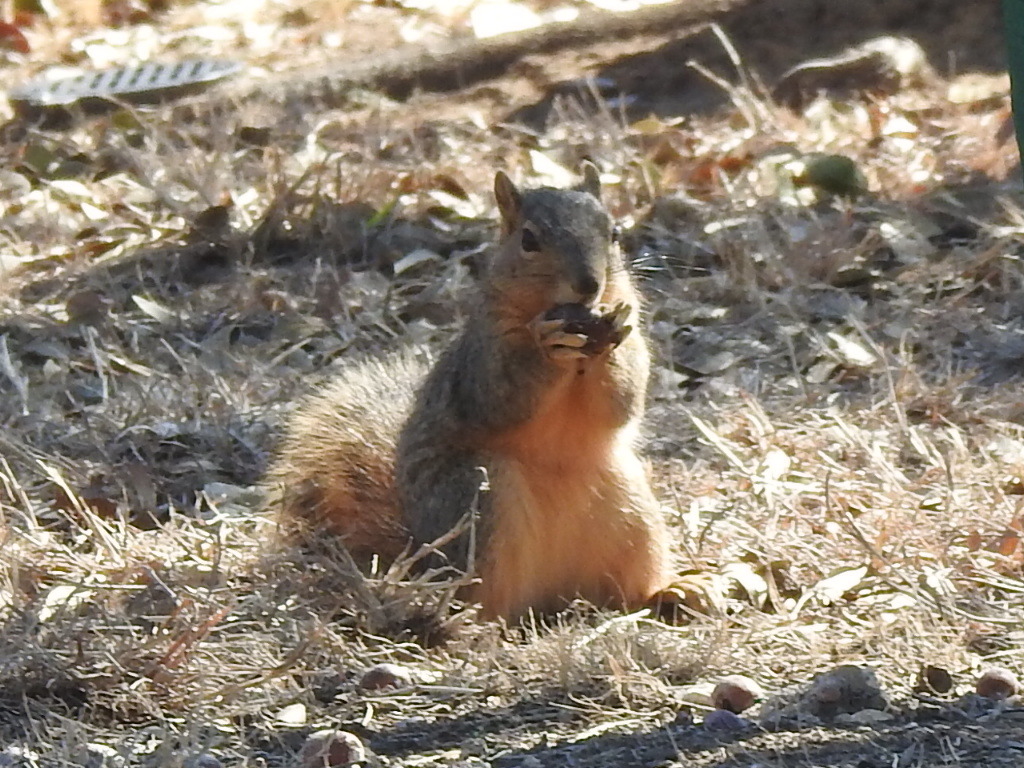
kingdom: Animalia
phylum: Chordata
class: Mammalia
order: Rodentia
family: Sciuridae
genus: Sciurus
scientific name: Sciurus niger
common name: Fox squirrel
